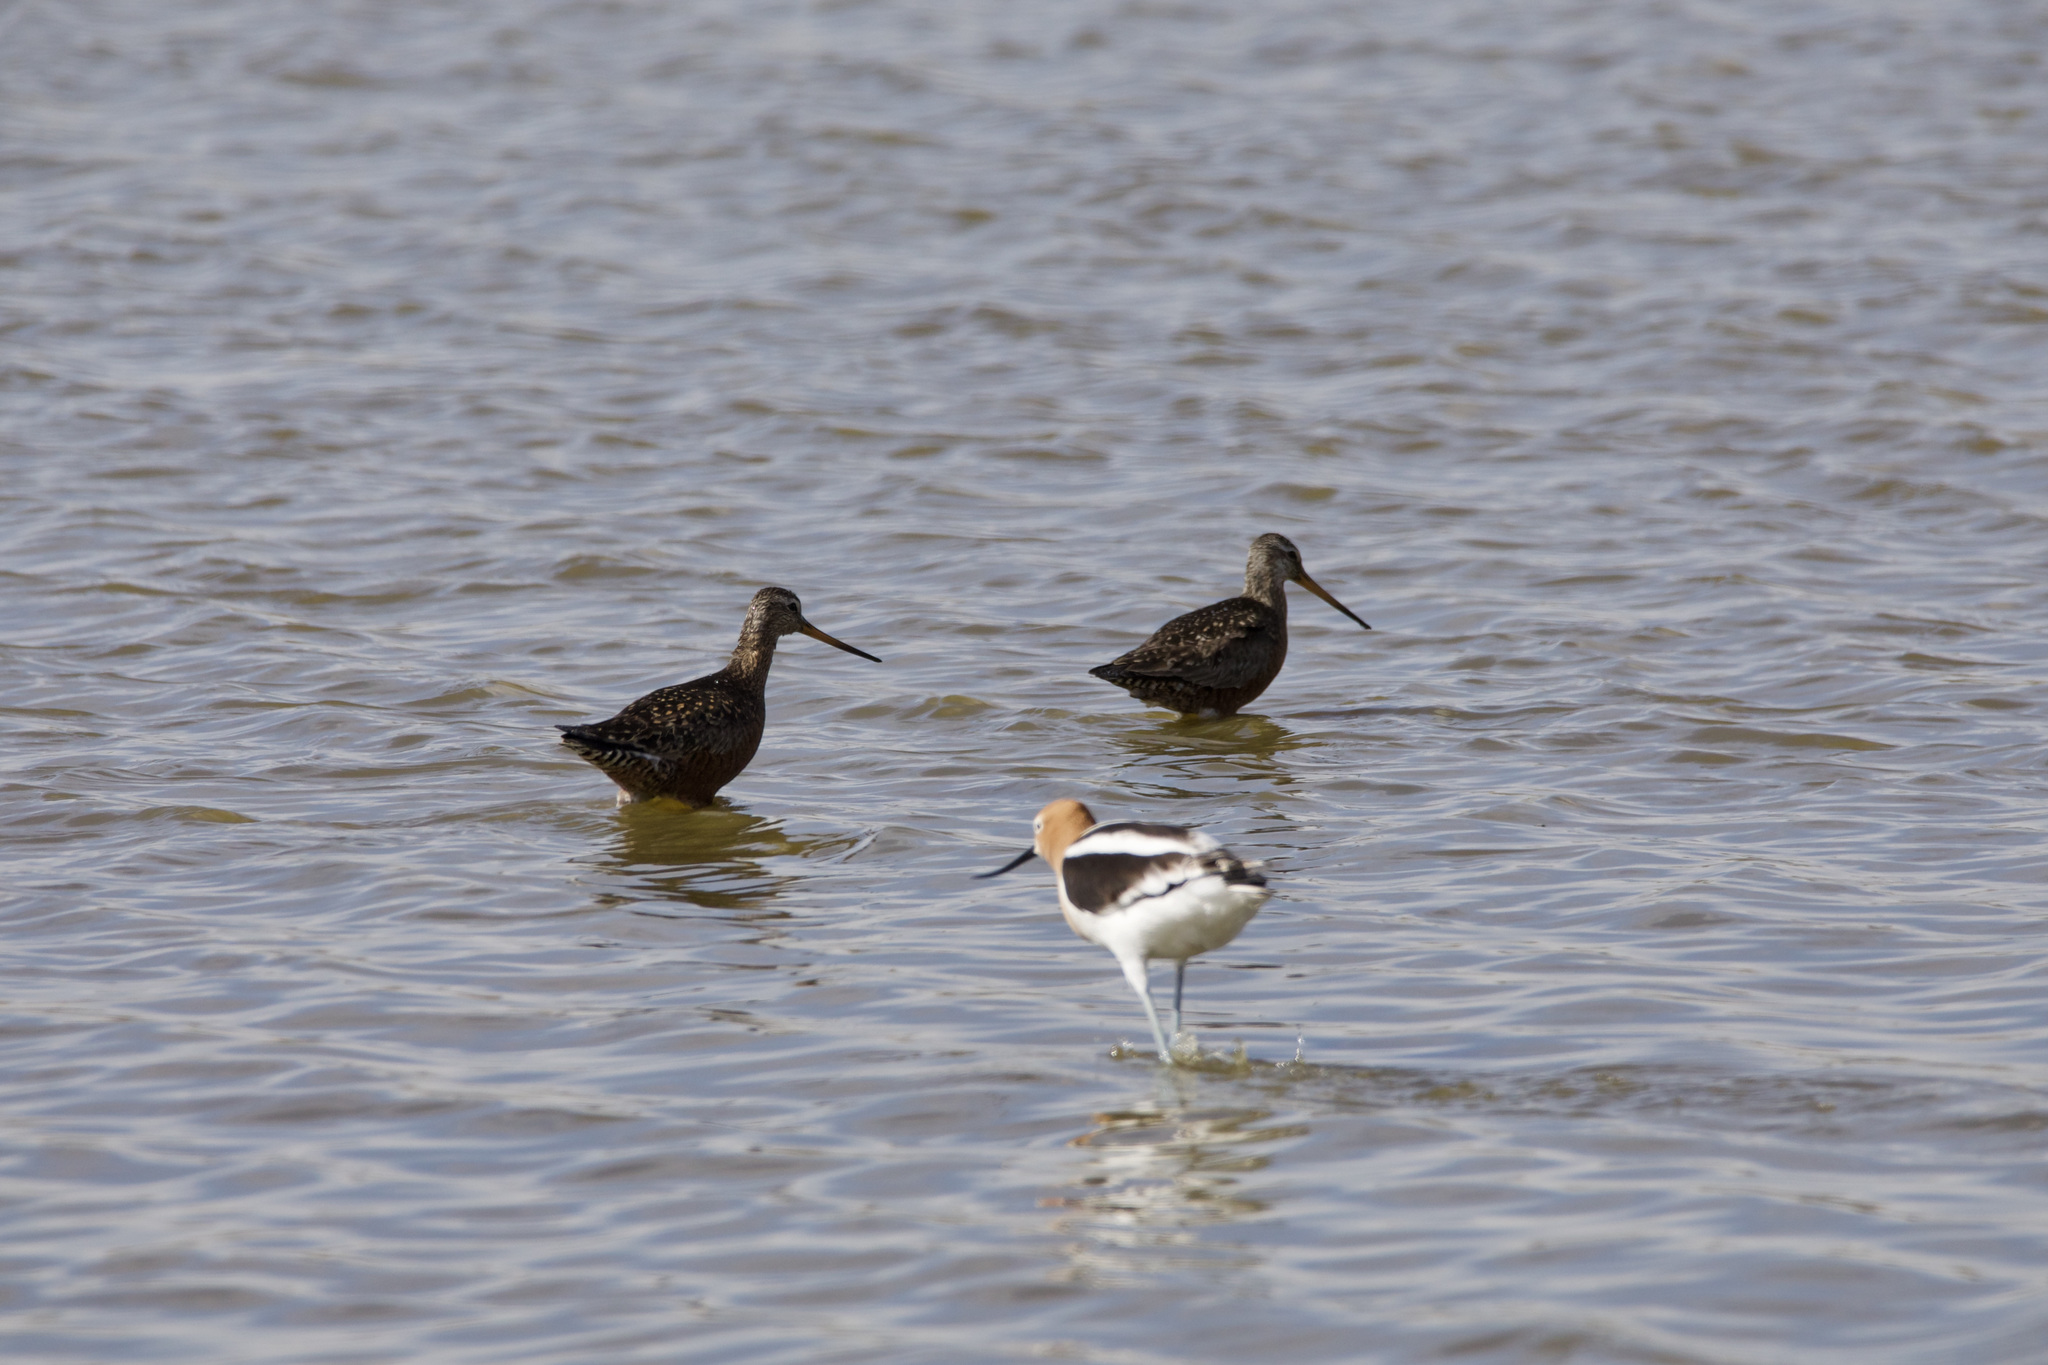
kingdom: Animalia
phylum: Chordata
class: Aves
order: Charadriiformes
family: Scolopacidae
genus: Limosa
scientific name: Limosa haemastica
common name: Hudsonian godwit
